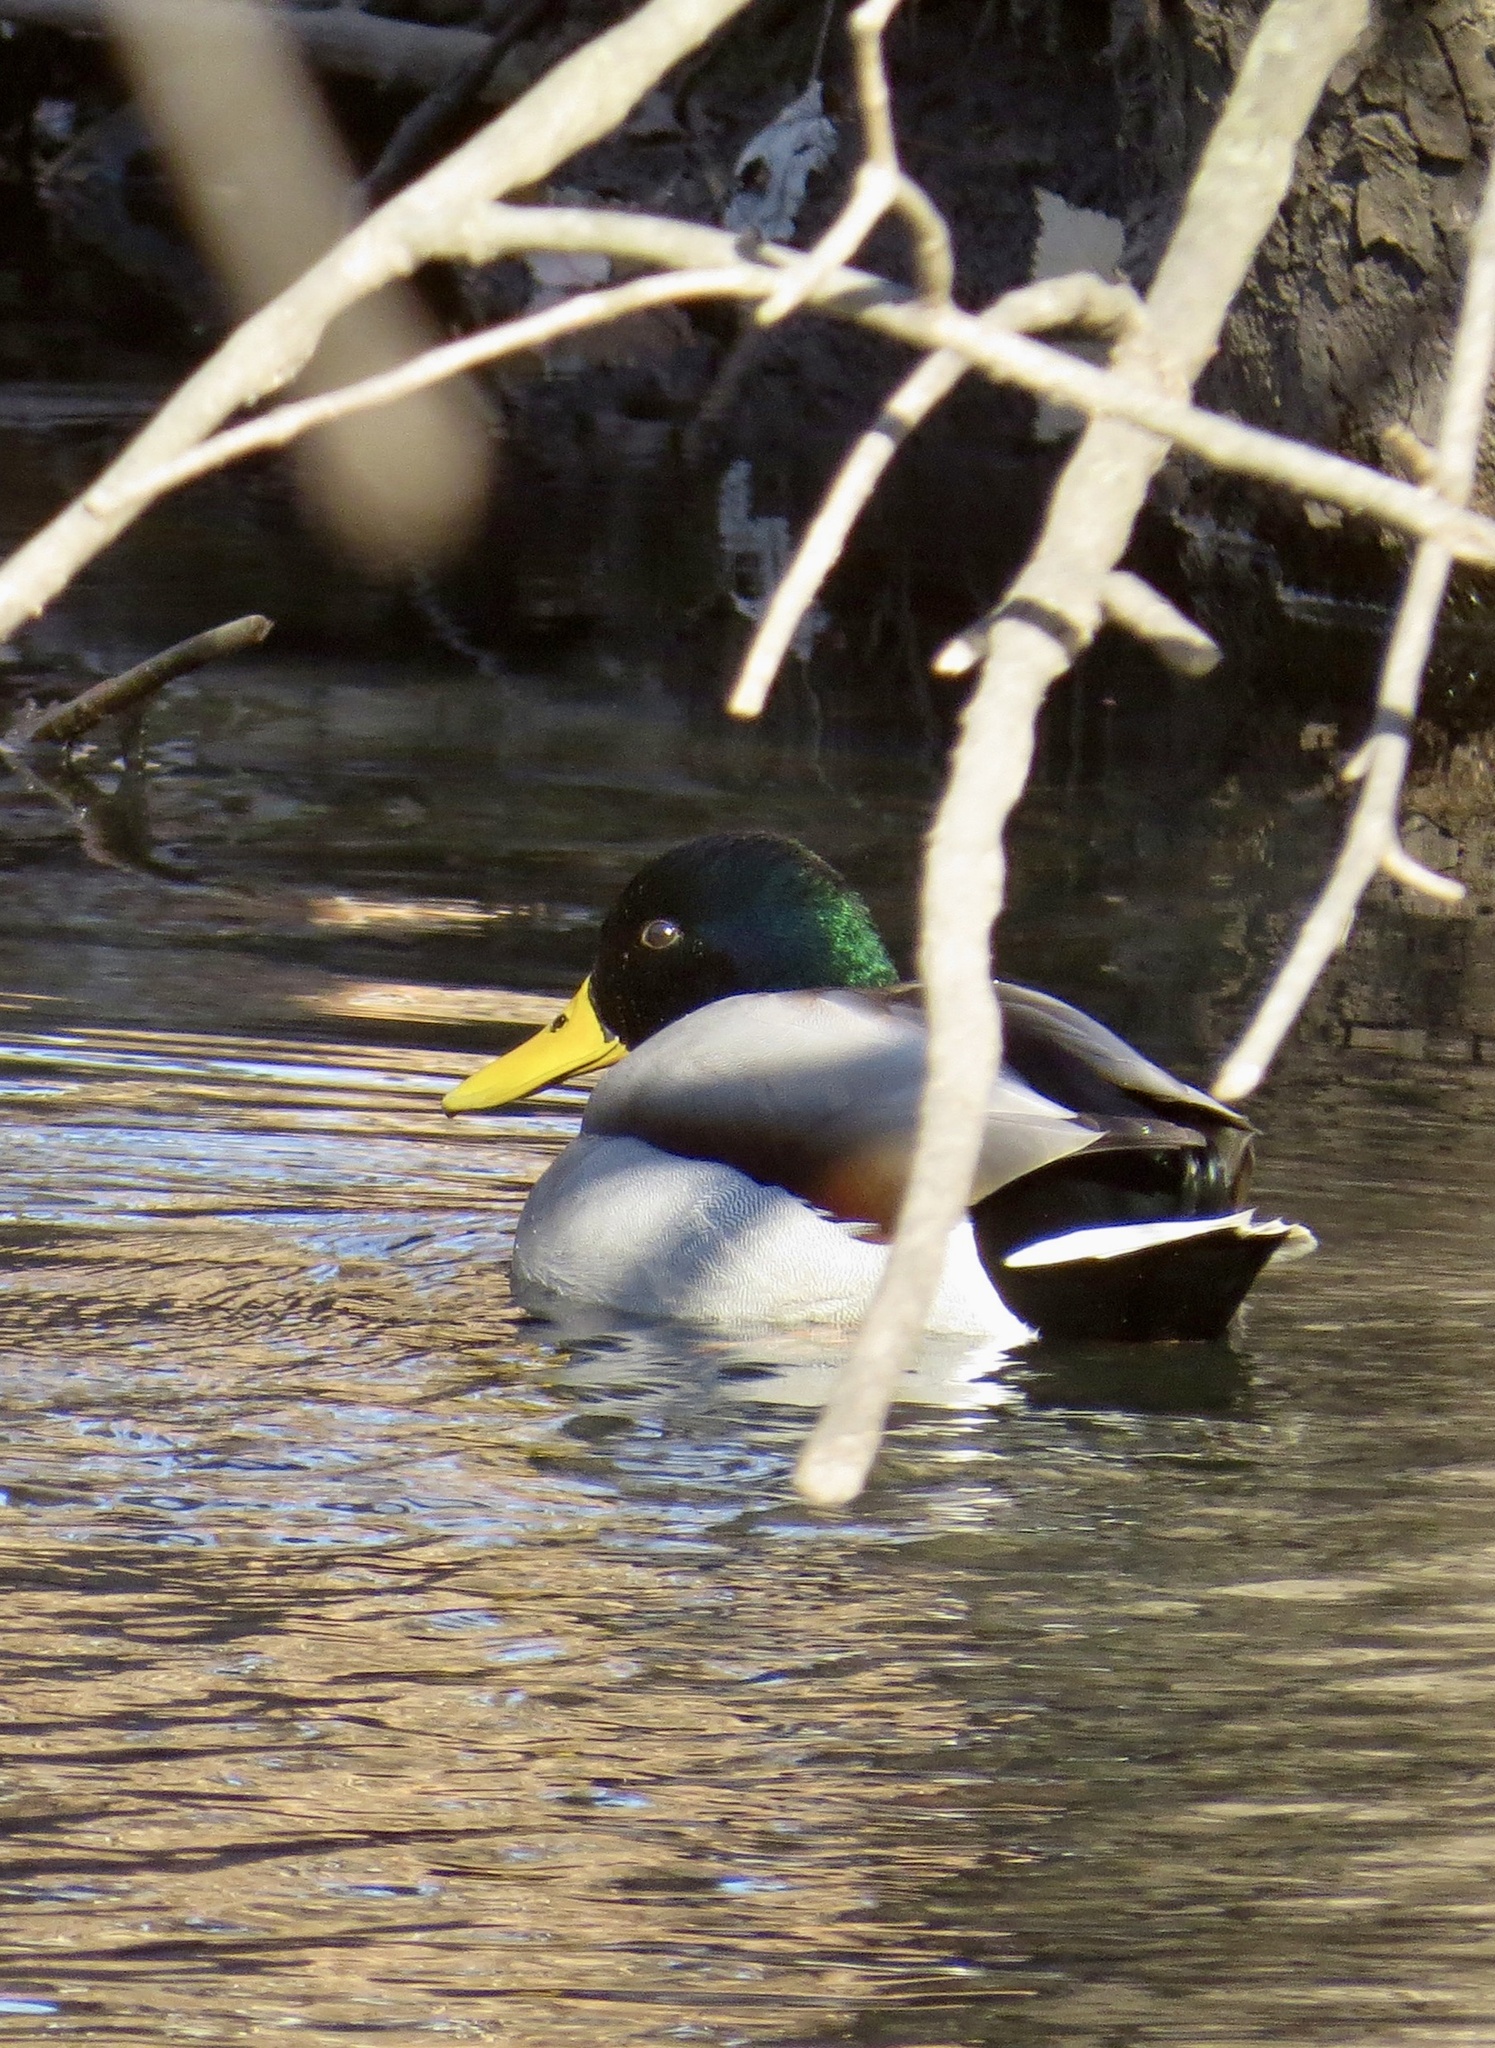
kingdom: Animalia
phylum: Chordata
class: Aves
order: Anseriformes
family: Anatidae
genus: Anas
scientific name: Anas platyrhynchos
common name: Mallard
